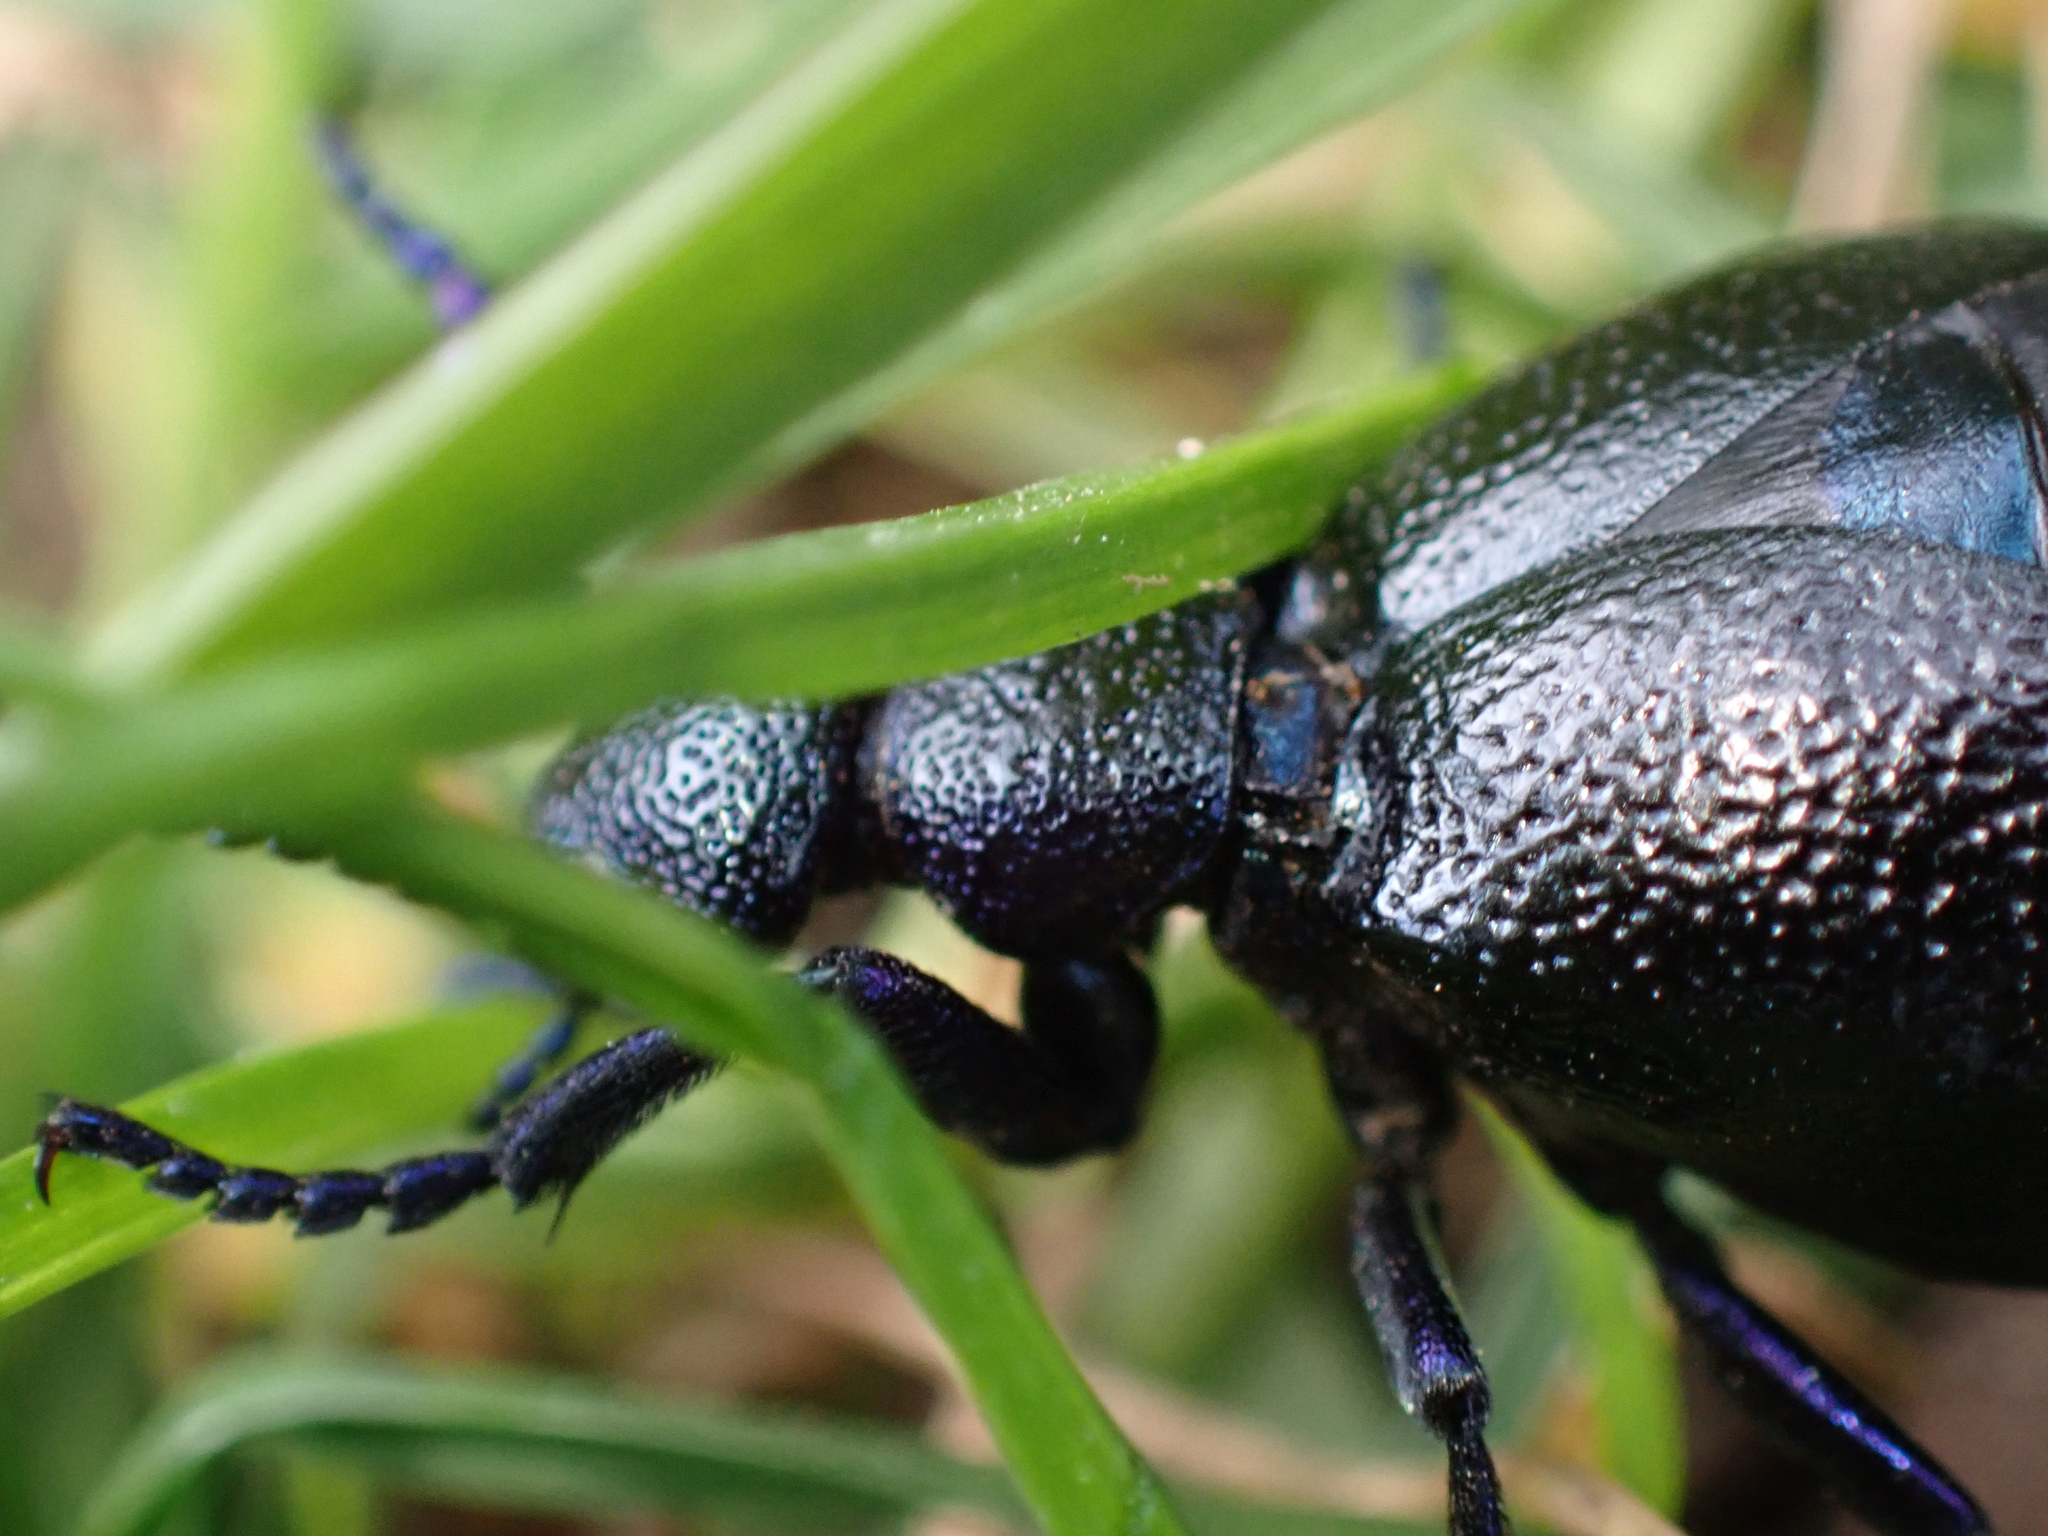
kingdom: Animalia
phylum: Arthropoda
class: Insecta
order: Coleoptera
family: Meloidae
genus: Meloe
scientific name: Meloe proscarabaeus
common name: Black oil-beetle
